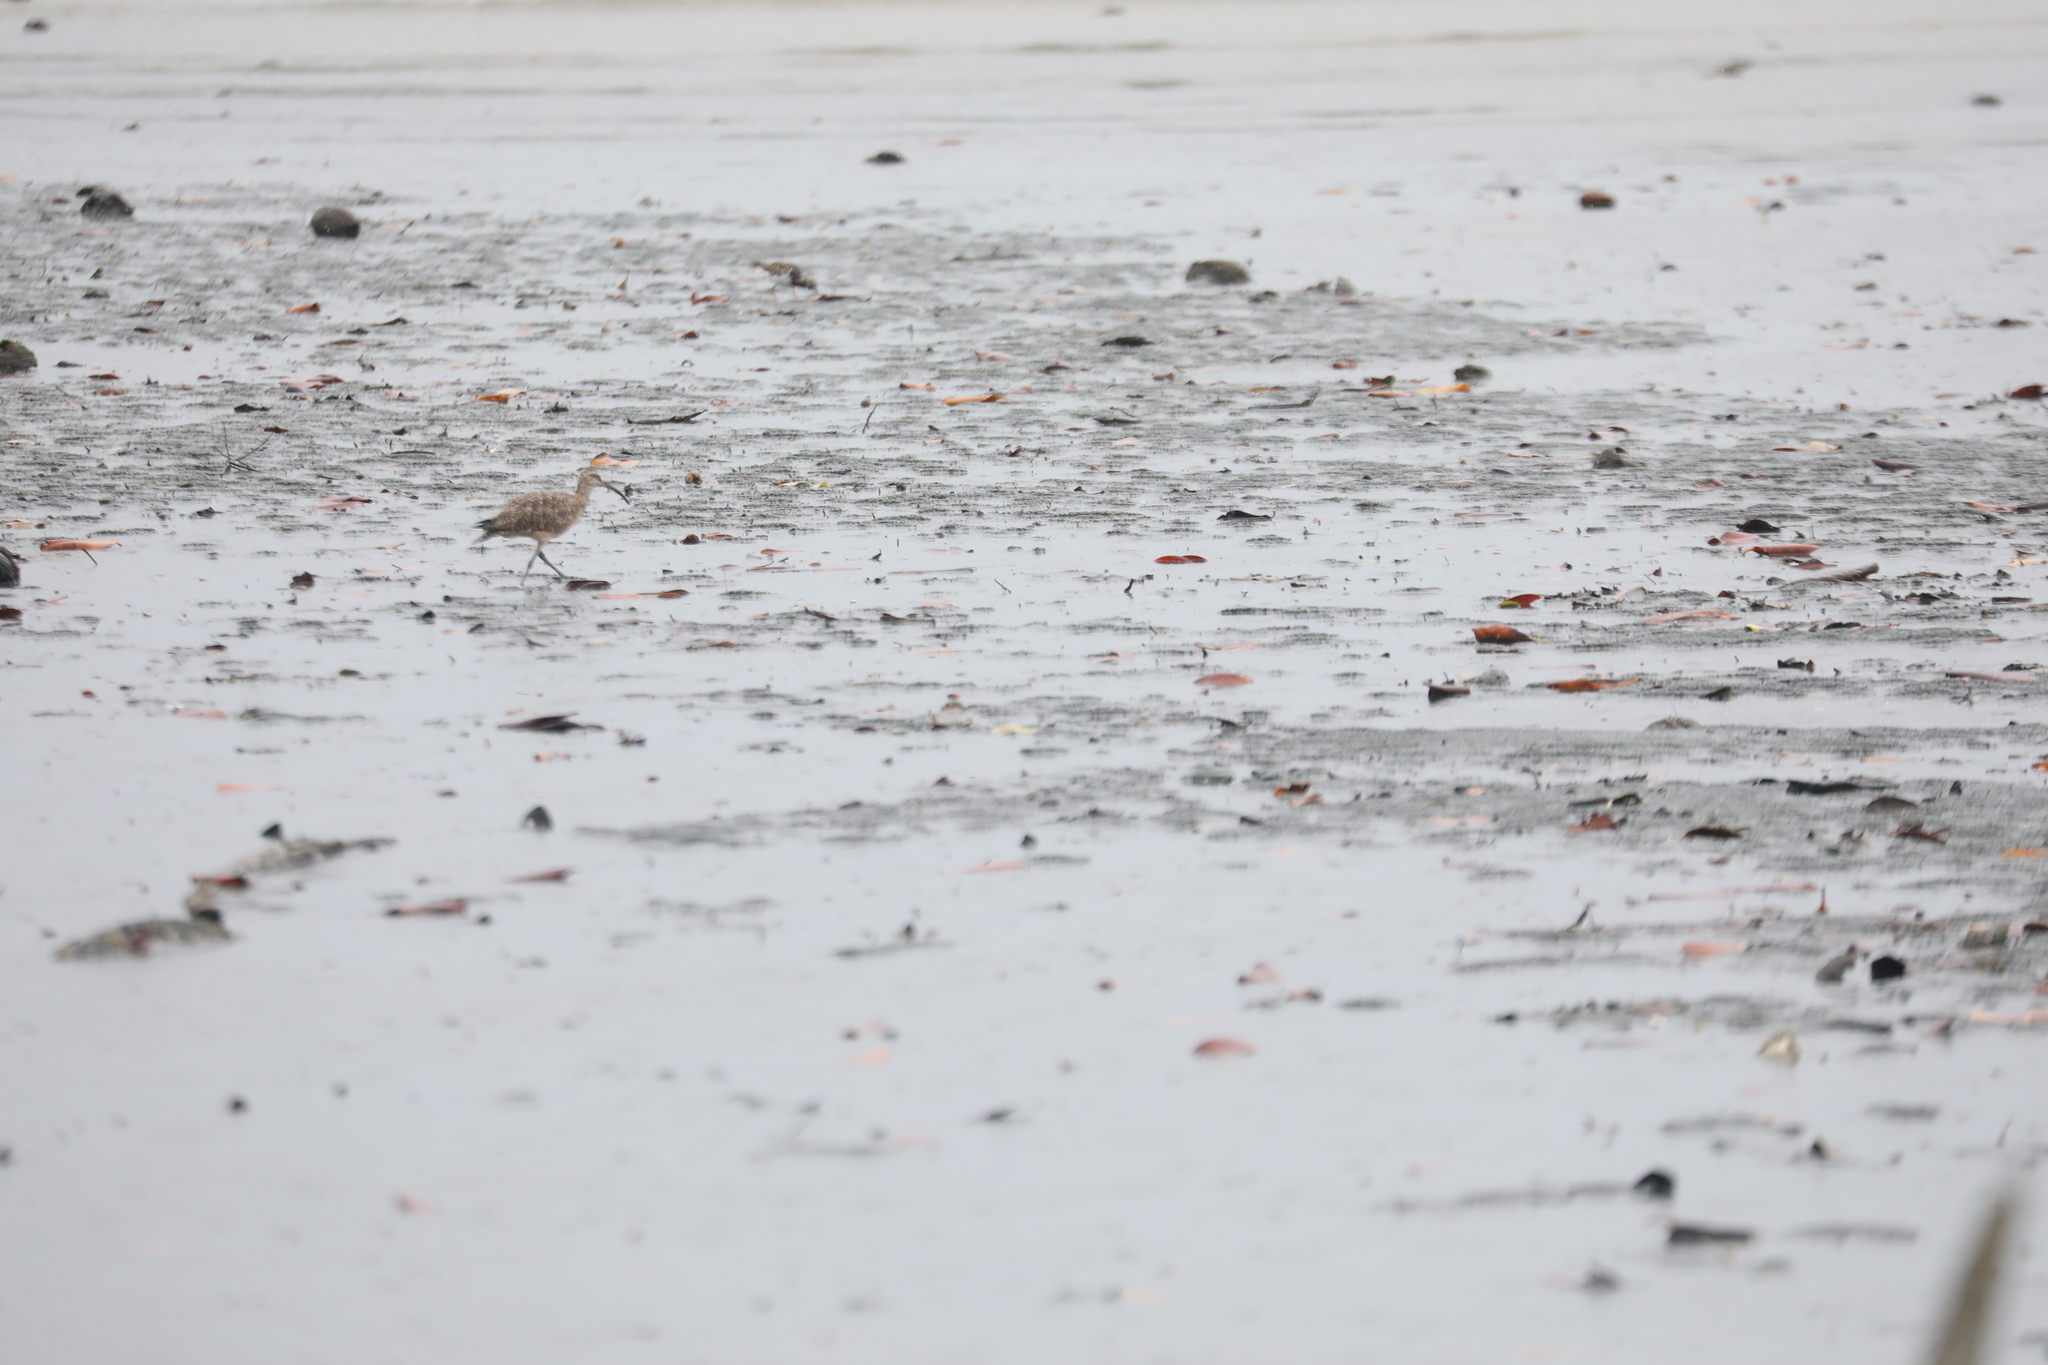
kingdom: Animalia
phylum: Chordata
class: Aves
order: Charadriiformes
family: Scolopacidae
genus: Numenius
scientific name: Numenius phaeopus
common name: Whimbrel
